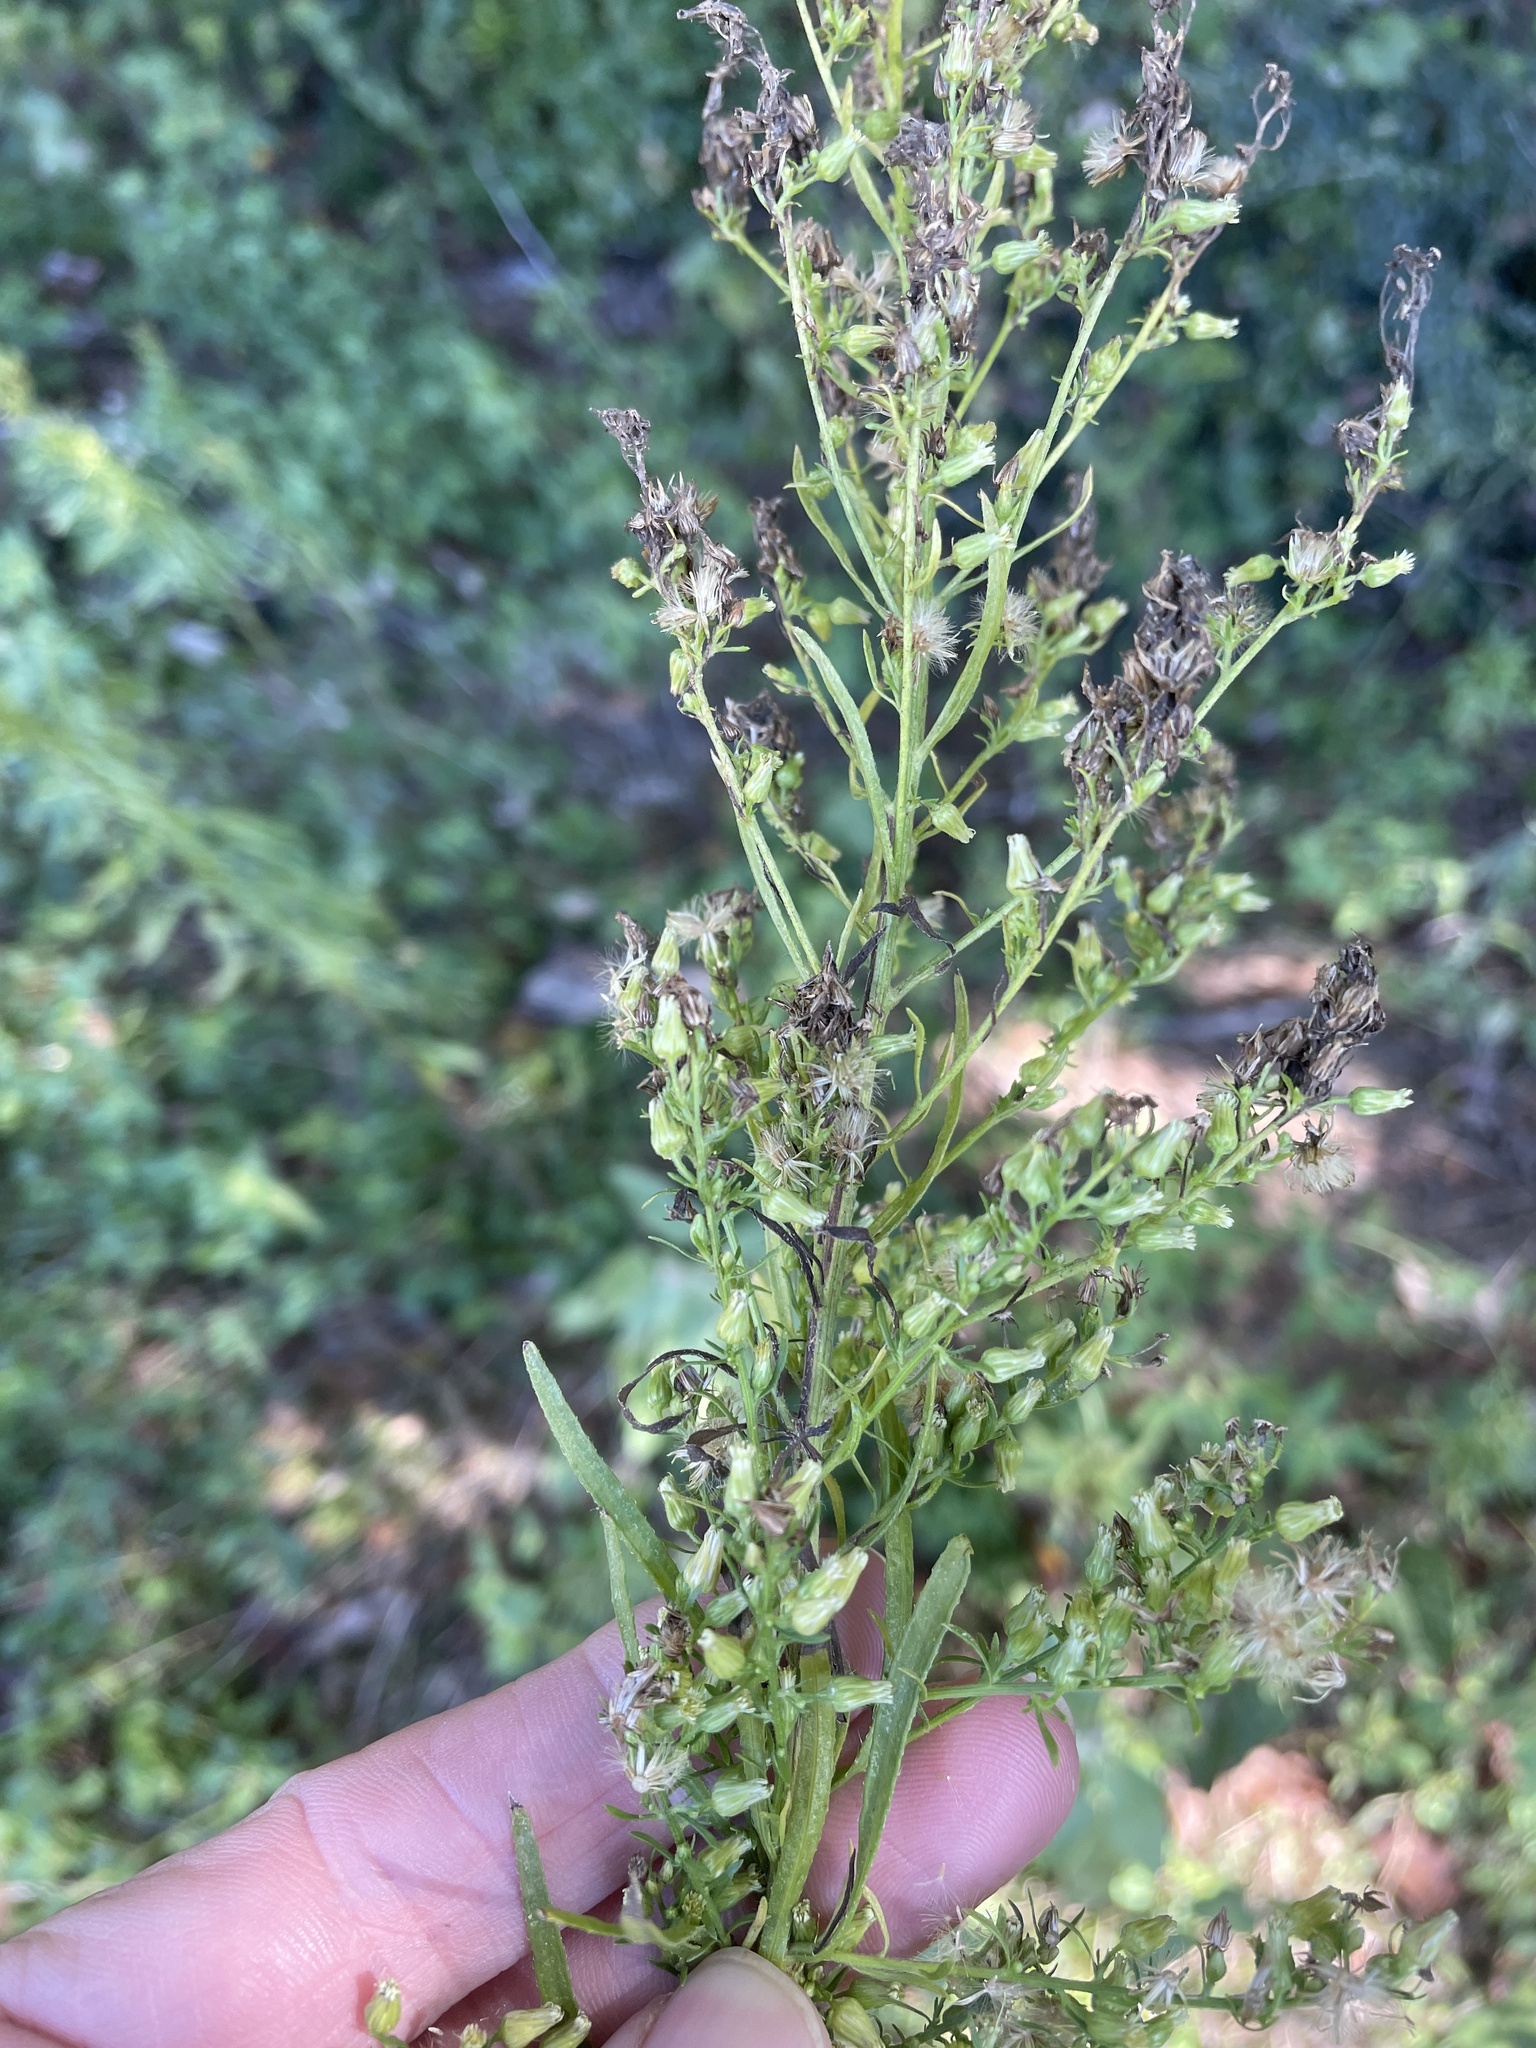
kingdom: Plantae
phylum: Tracheophyta
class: Magnoliopsida
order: Asterales
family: Asteraceae
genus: Erigeron
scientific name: Erigeron canadensis
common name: Canadian fleabane
